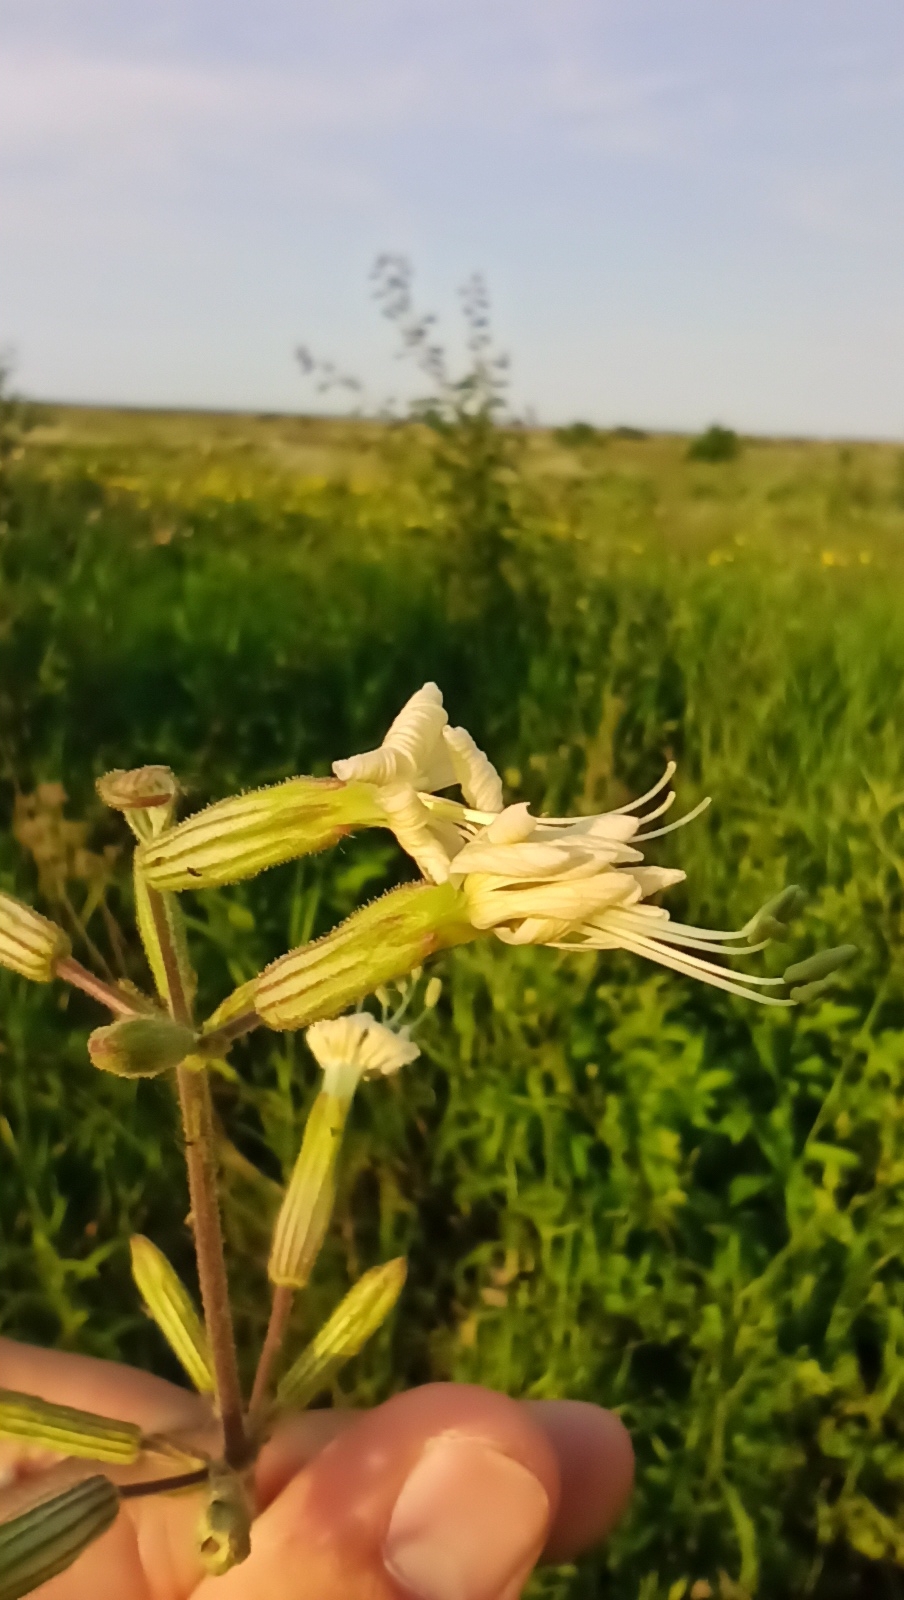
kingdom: Plantae
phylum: Tracheophyta
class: Magnoliopsida
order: Caryophyllales
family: Caryophyllaceae
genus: Silene
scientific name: Silene viscosa
